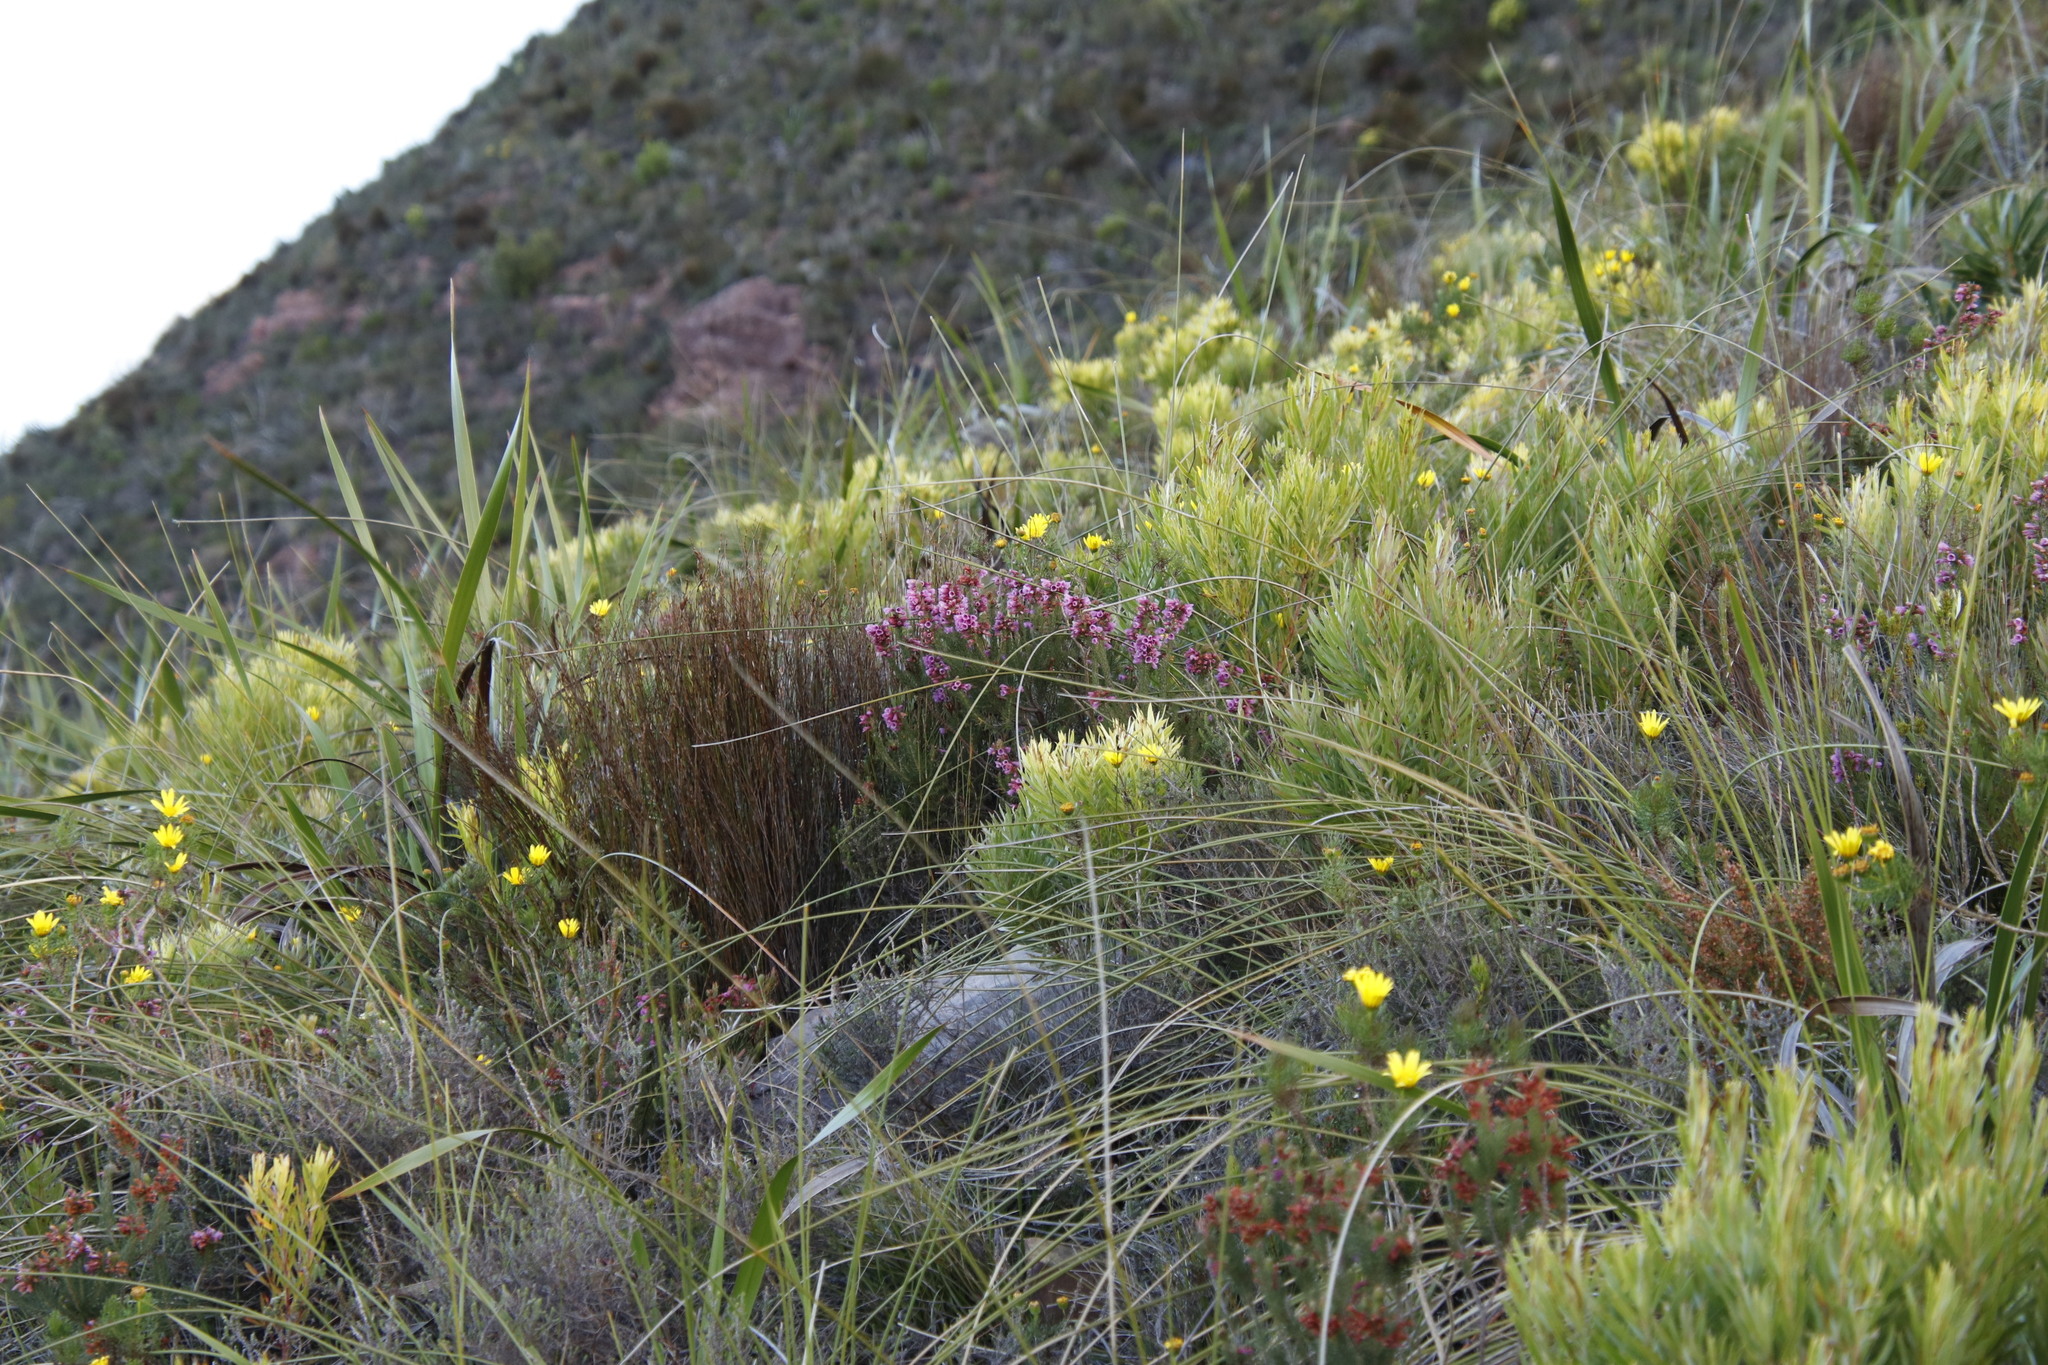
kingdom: Plantae
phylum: Tracheophyta
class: Magnoliopsida
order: Ericales
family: Ericaceae
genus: Erica
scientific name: Erica abietina
